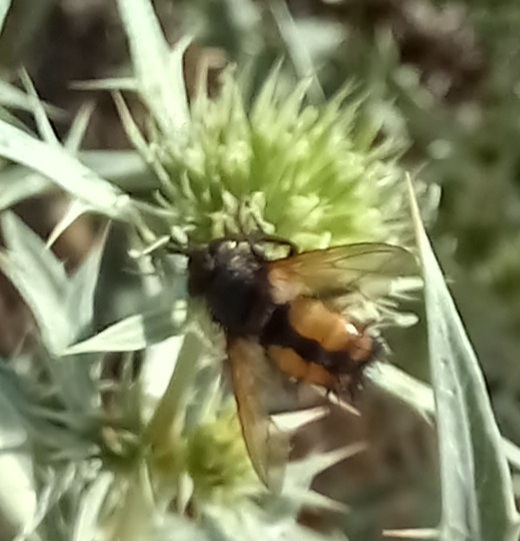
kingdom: Animalia
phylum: Arthropoda
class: Insecta
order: Diptera
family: Tachinidae
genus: Tachina
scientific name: Tachina fera
